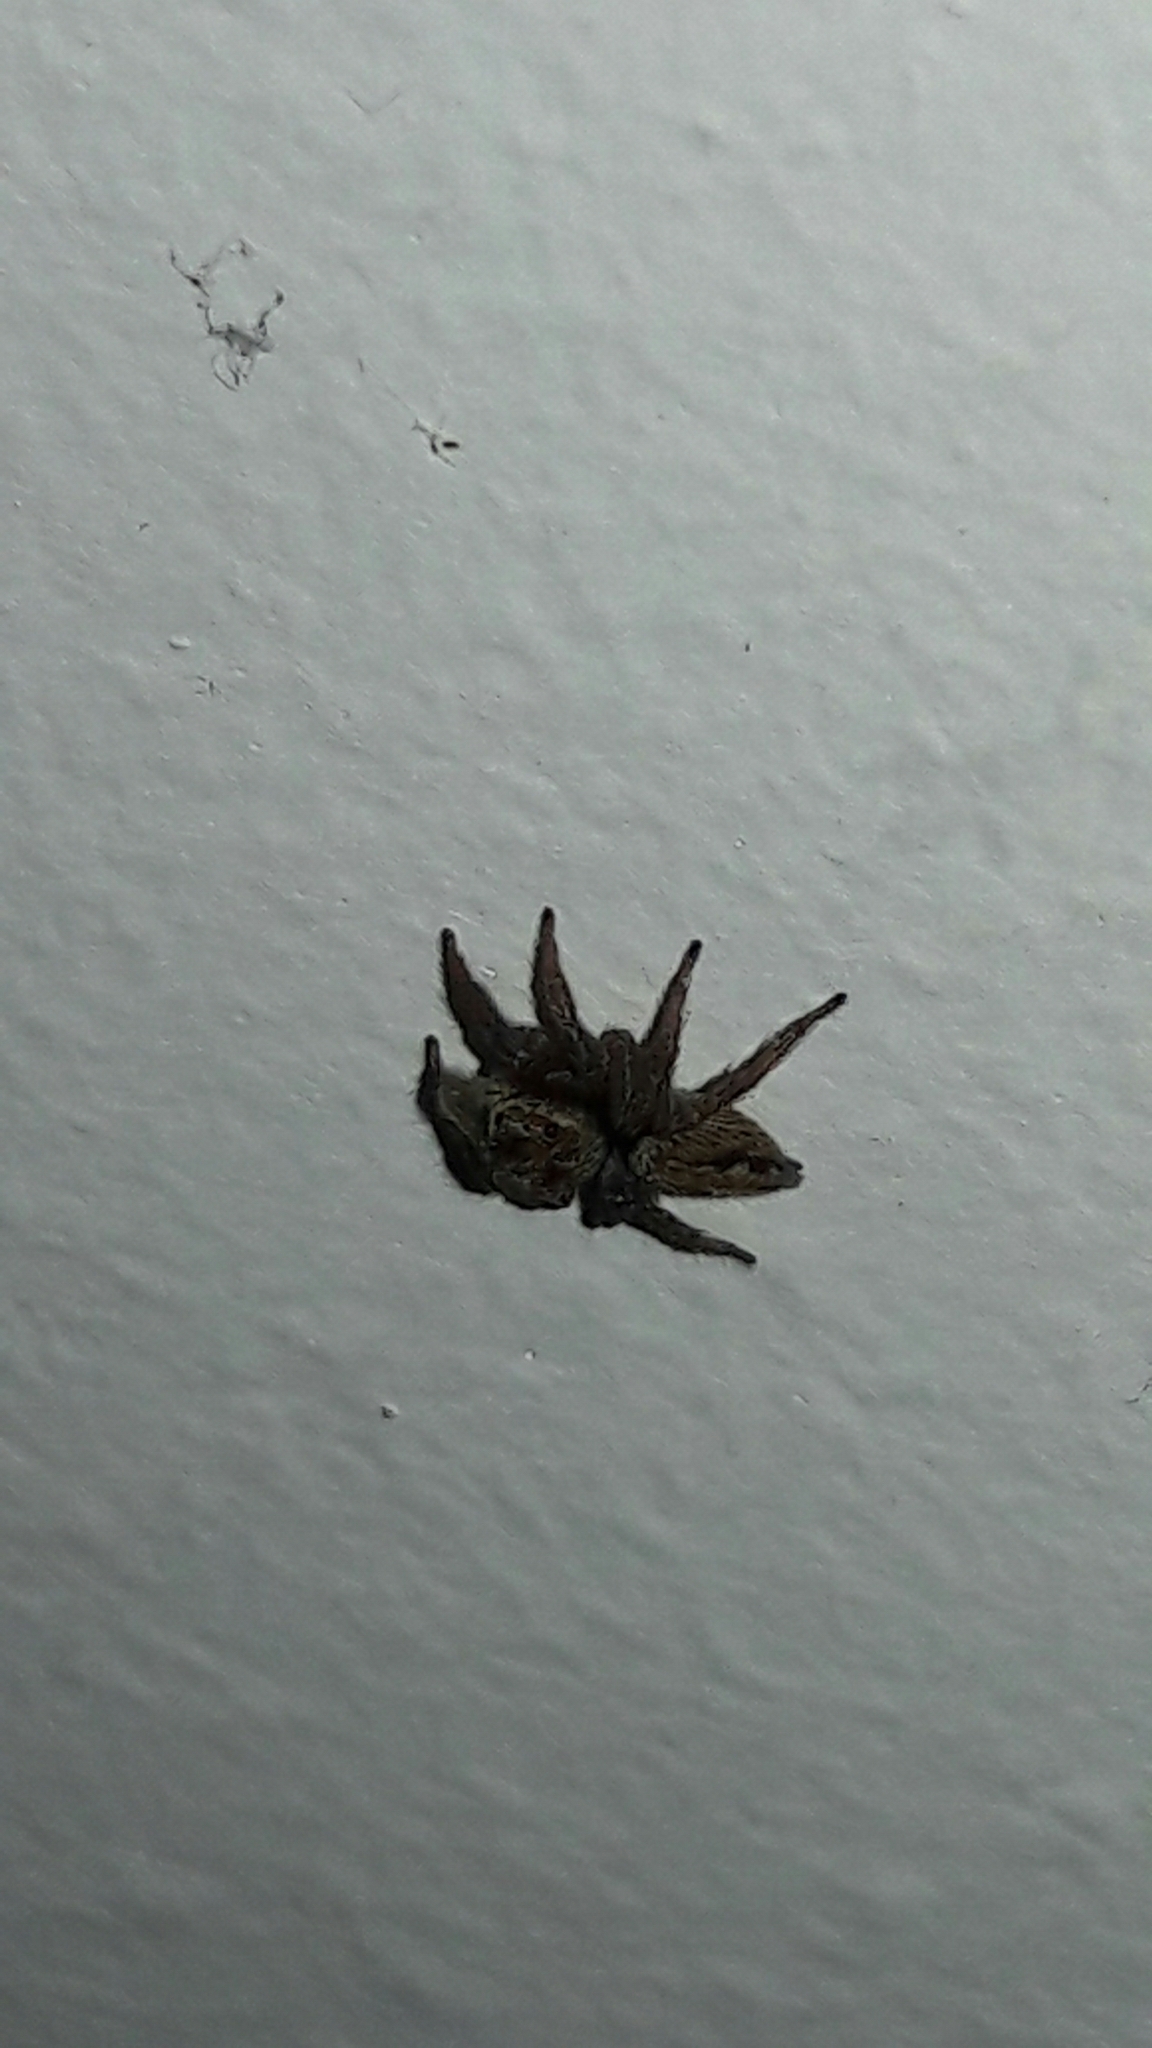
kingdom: Animalia
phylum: Arthropoda
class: Arachnida
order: Araneae
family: Salticidae
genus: Hasarius
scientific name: Hasarius adansoni
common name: Jumping spider
